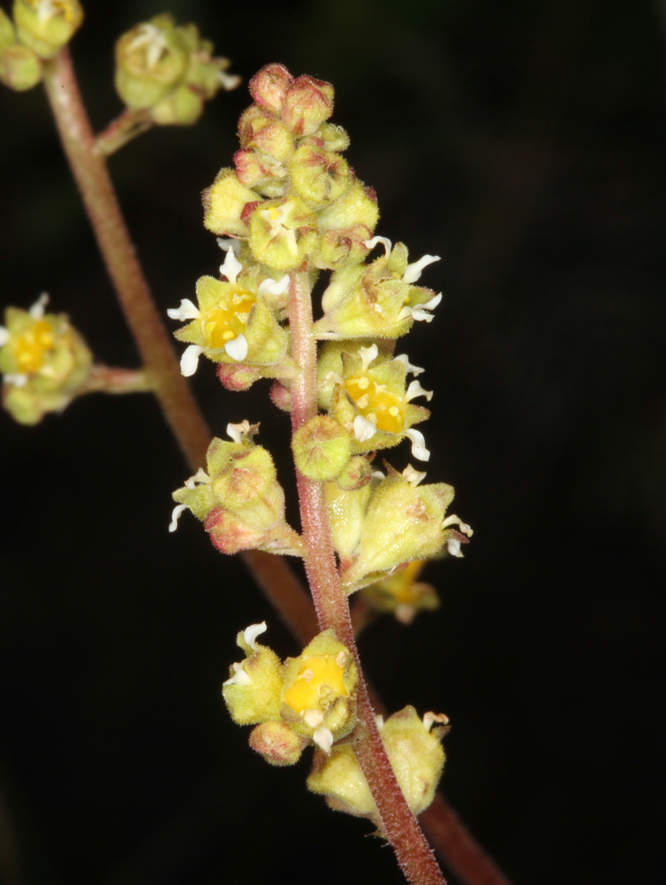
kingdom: Plantae
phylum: Tracheophyta
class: Magnoliopsida
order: Saxifragales
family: Saxifragaceae
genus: Heuchera
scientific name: Heuchera parvifolia
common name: Common alumroot
